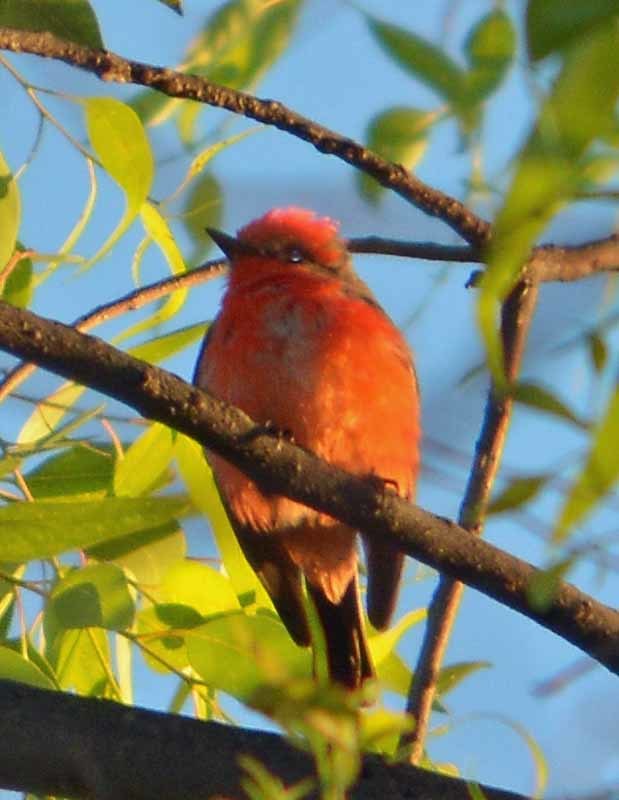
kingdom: Animalia
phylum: Chordata
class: Aves
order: Passeriformes
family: Tyrannidae
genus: Pyrocephalus
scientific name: Pyrocephalus rubinus
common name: Vermilion flycatcher
